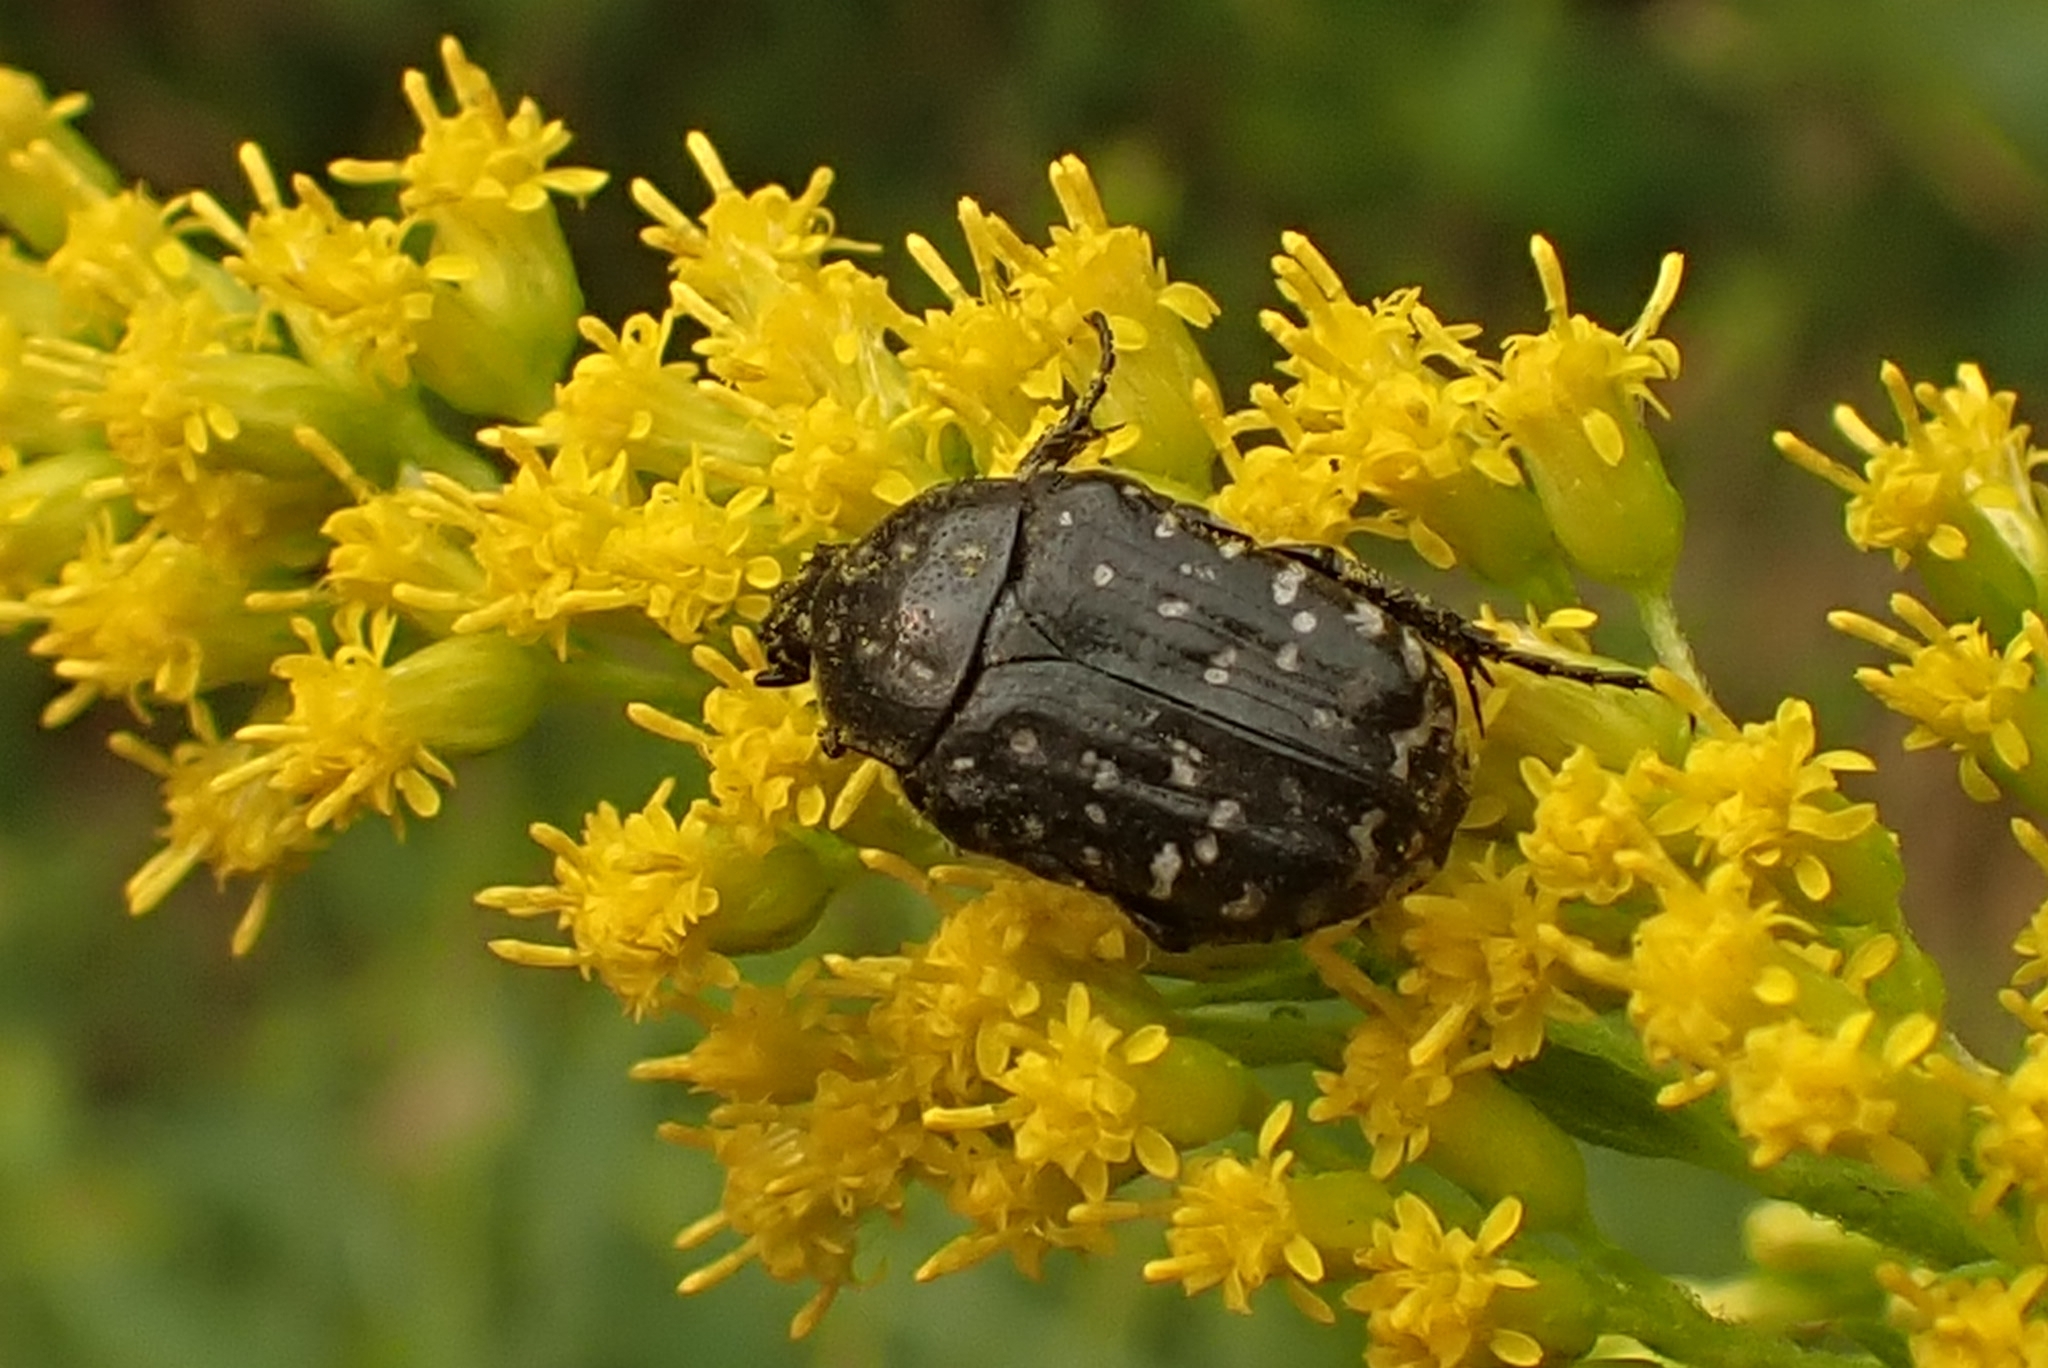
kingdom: Animalia
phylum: Arthropoda
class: Insecta
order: Coleoptera
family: Scarabaeidae
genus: Oxythyrea
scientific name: Oxythyrea funesta
